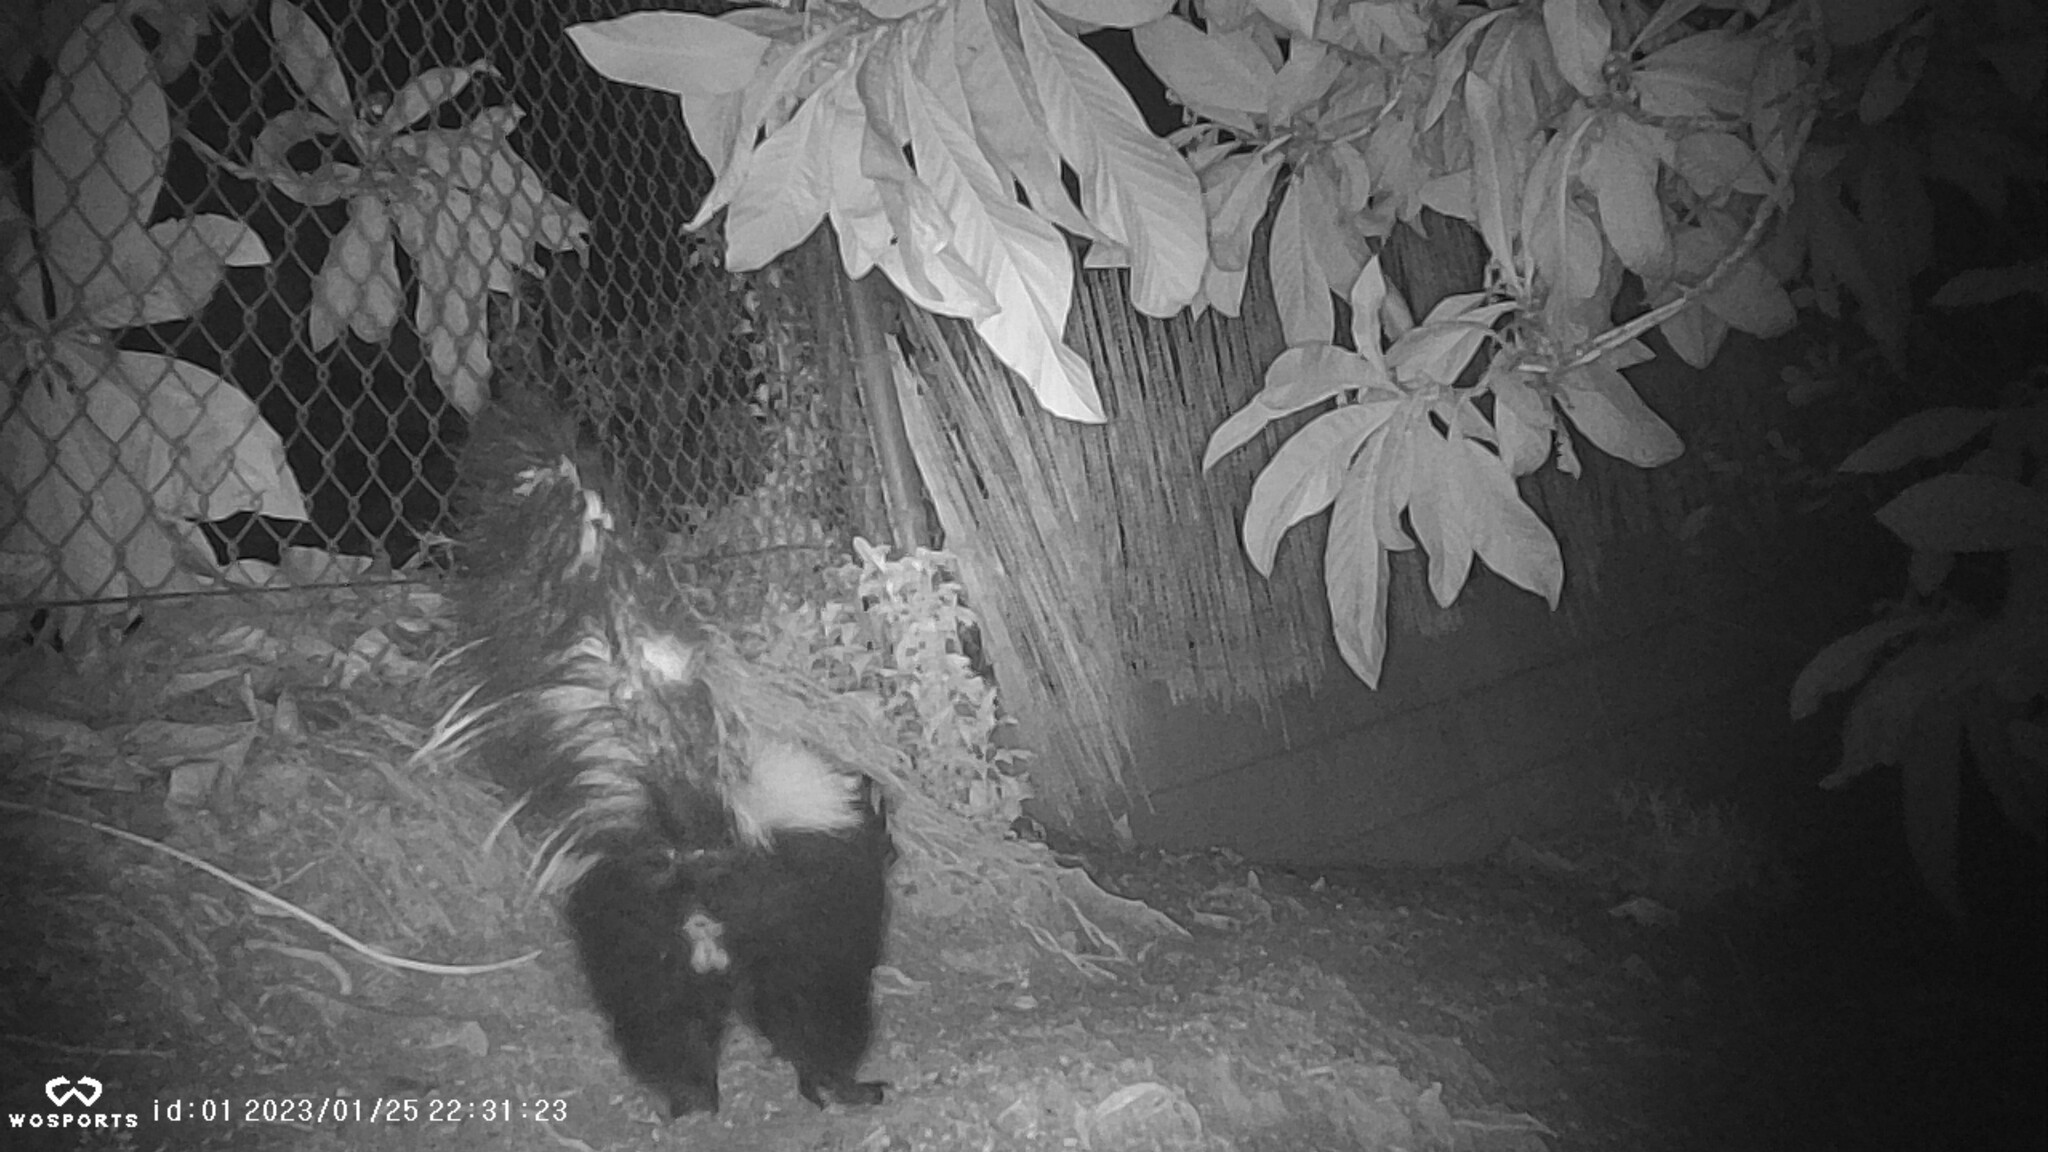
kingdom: Animalia
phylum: Chordata
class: Mammalia
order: Carnivora
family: Mephitidae
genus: Mephitis
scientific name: Mephitis mephitis
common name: Striped skunk
